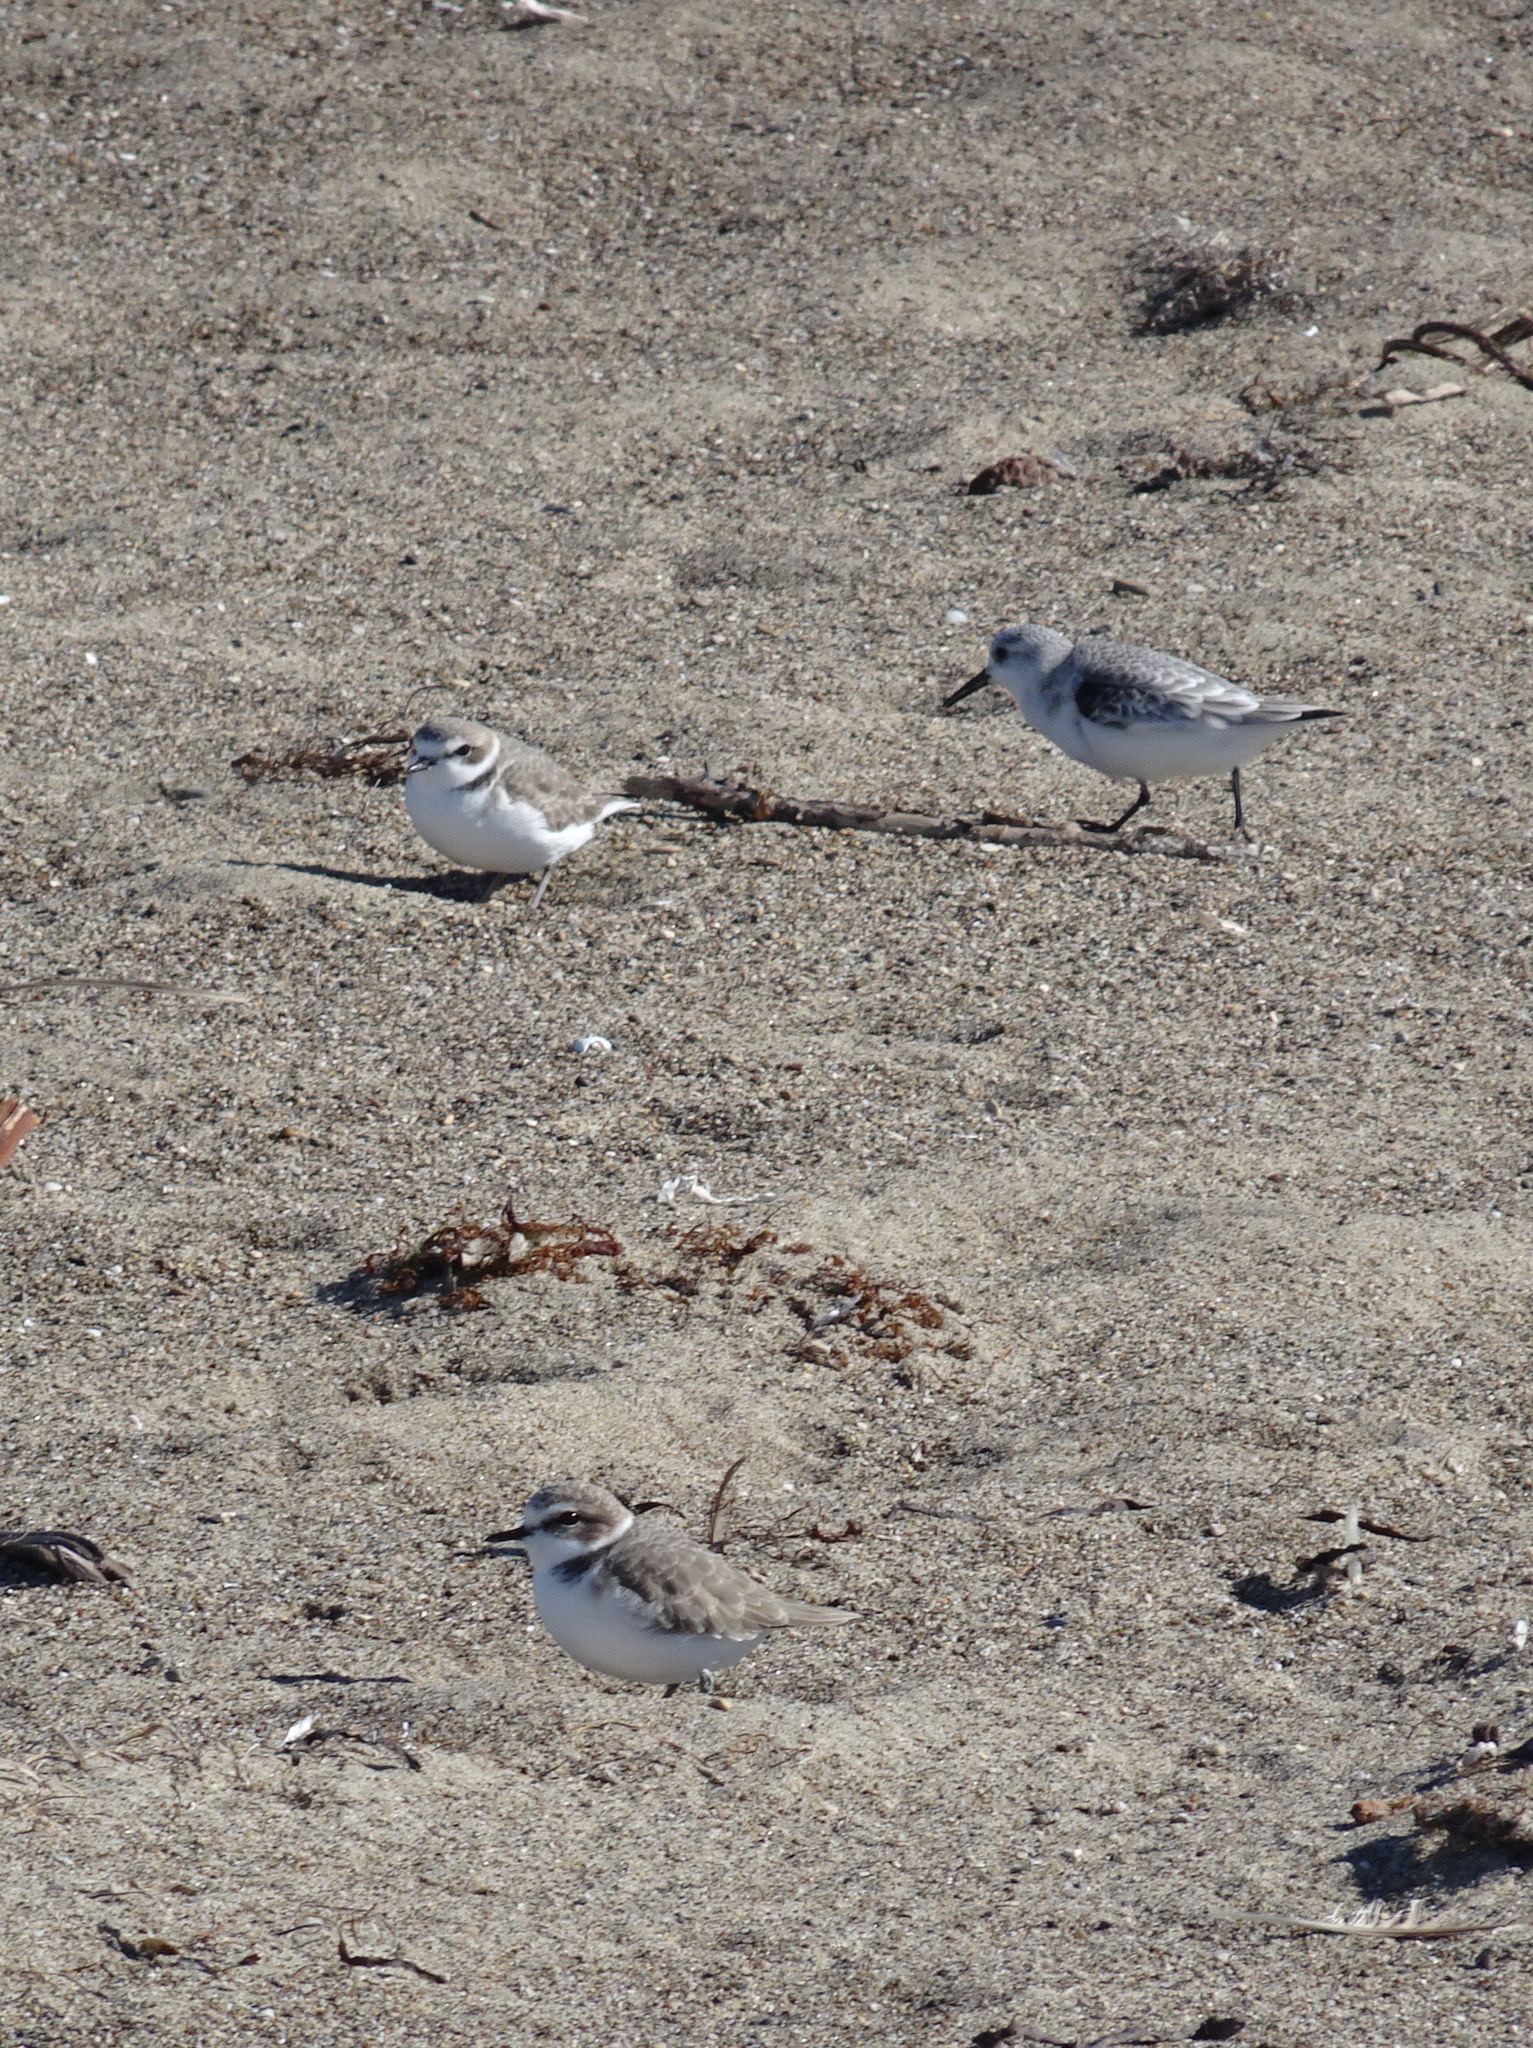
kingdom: Animalia
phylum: Chordata
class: Aves
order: Charadriiformes
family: Charadriidae
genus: Anarhynchus
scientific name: Anarhynchus
